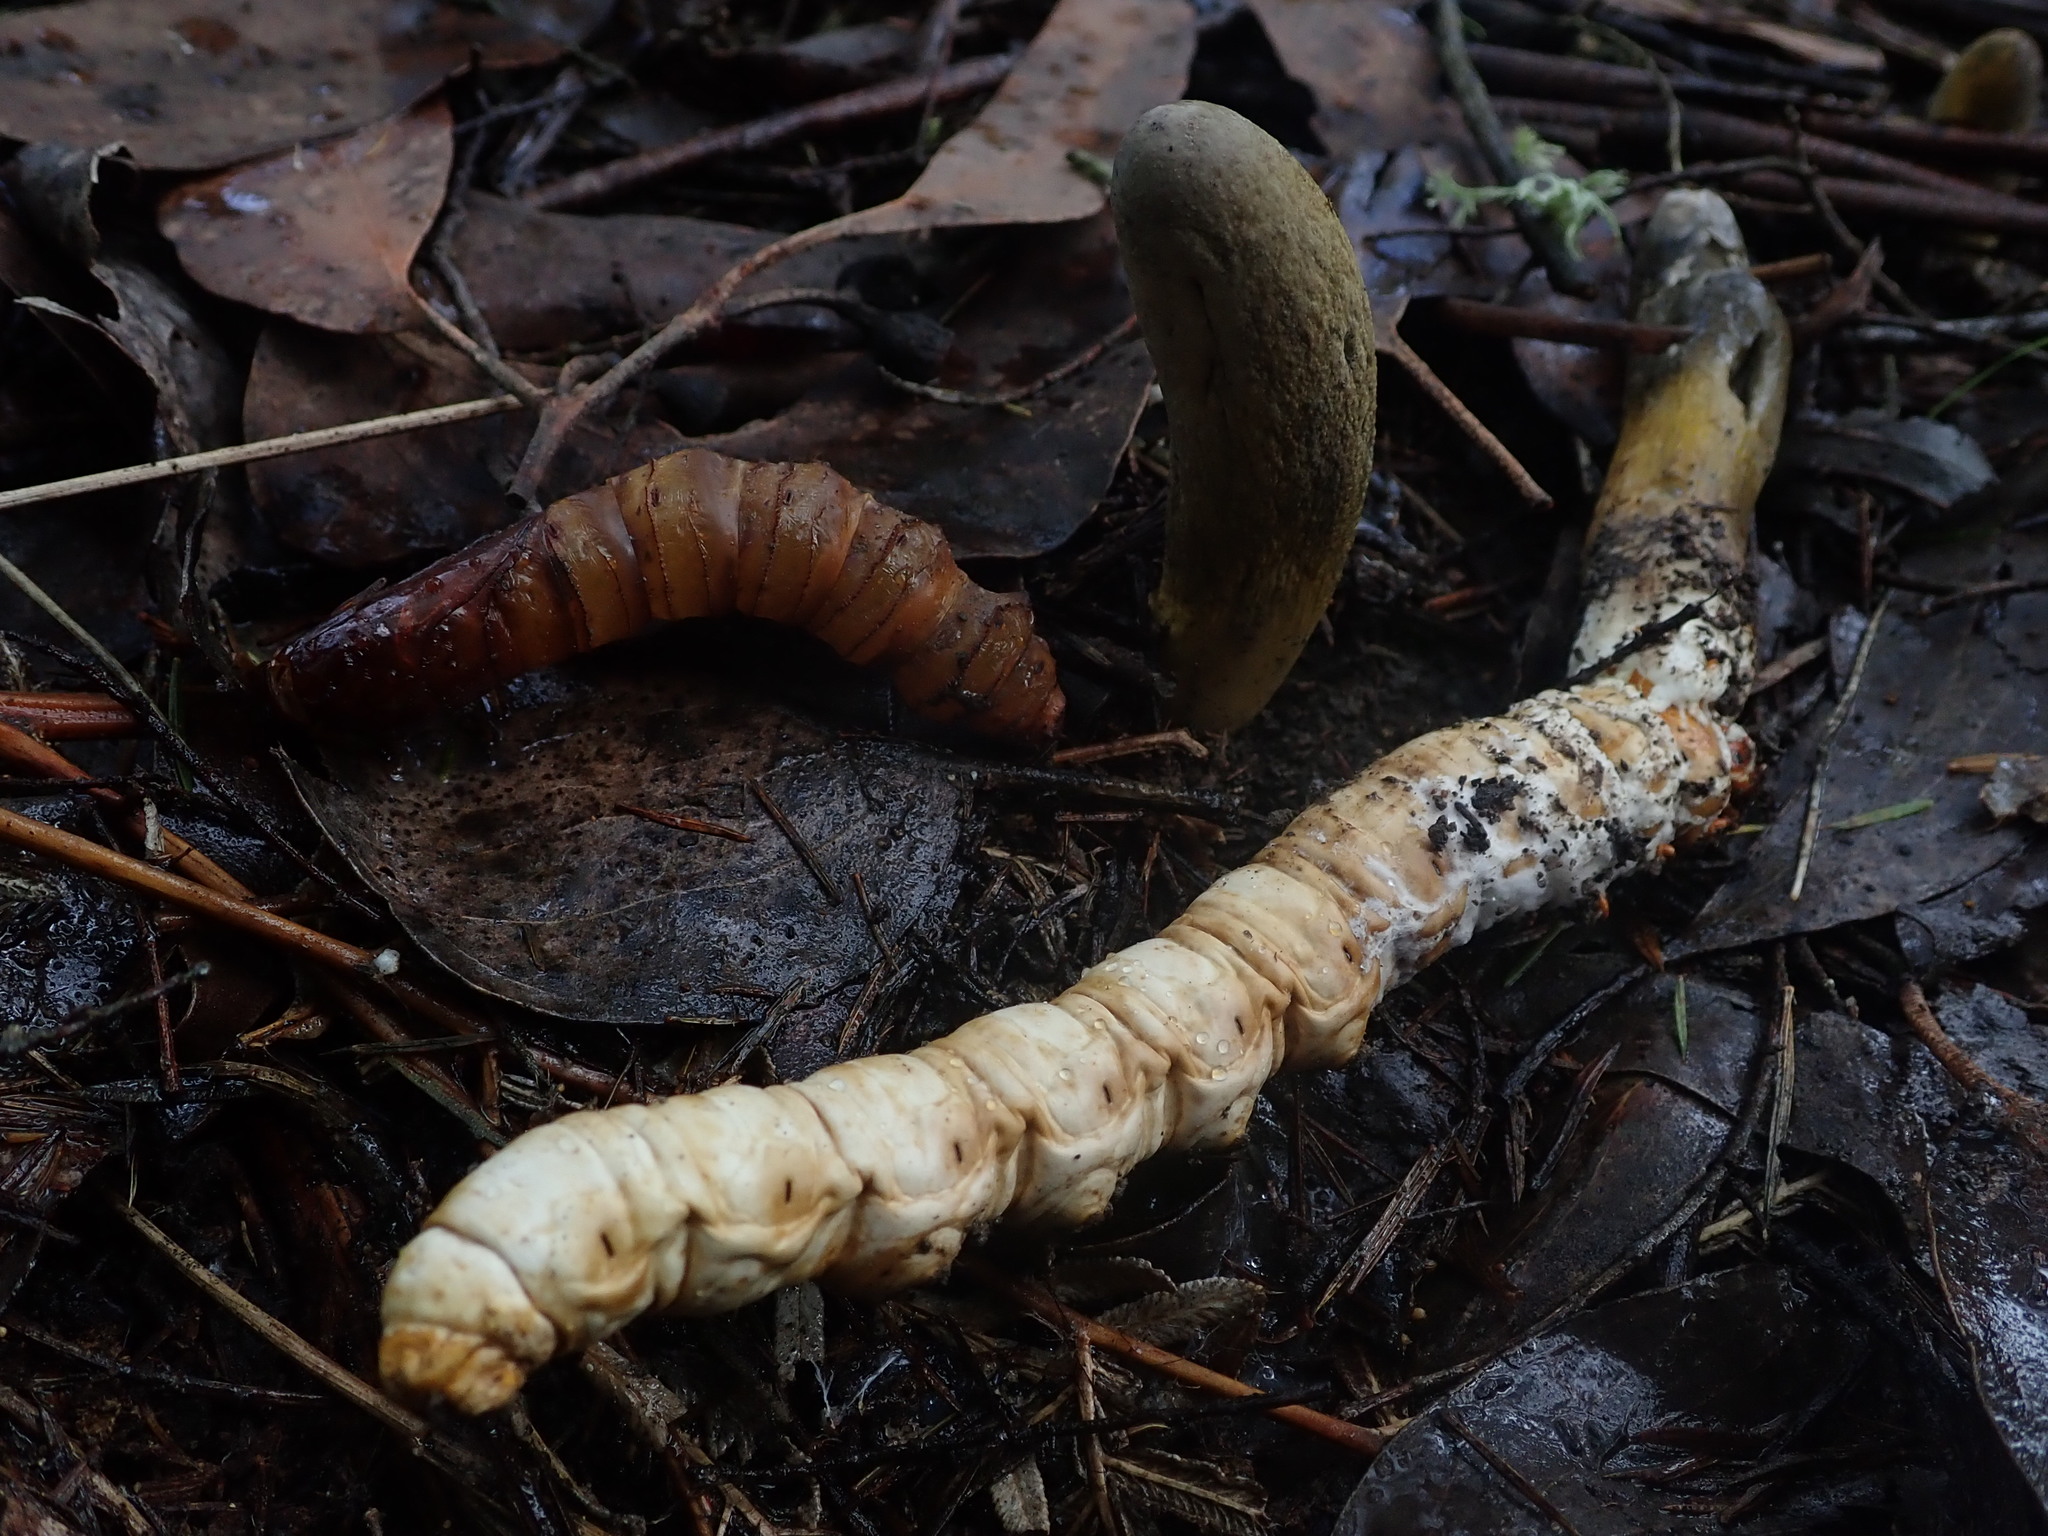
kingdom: Fungi
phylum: Ascomycota
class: Sordariomycetes
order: Hypocreales
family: Clavicipitaceae
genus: Drechmeria
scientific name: Drechmeria gunnii
